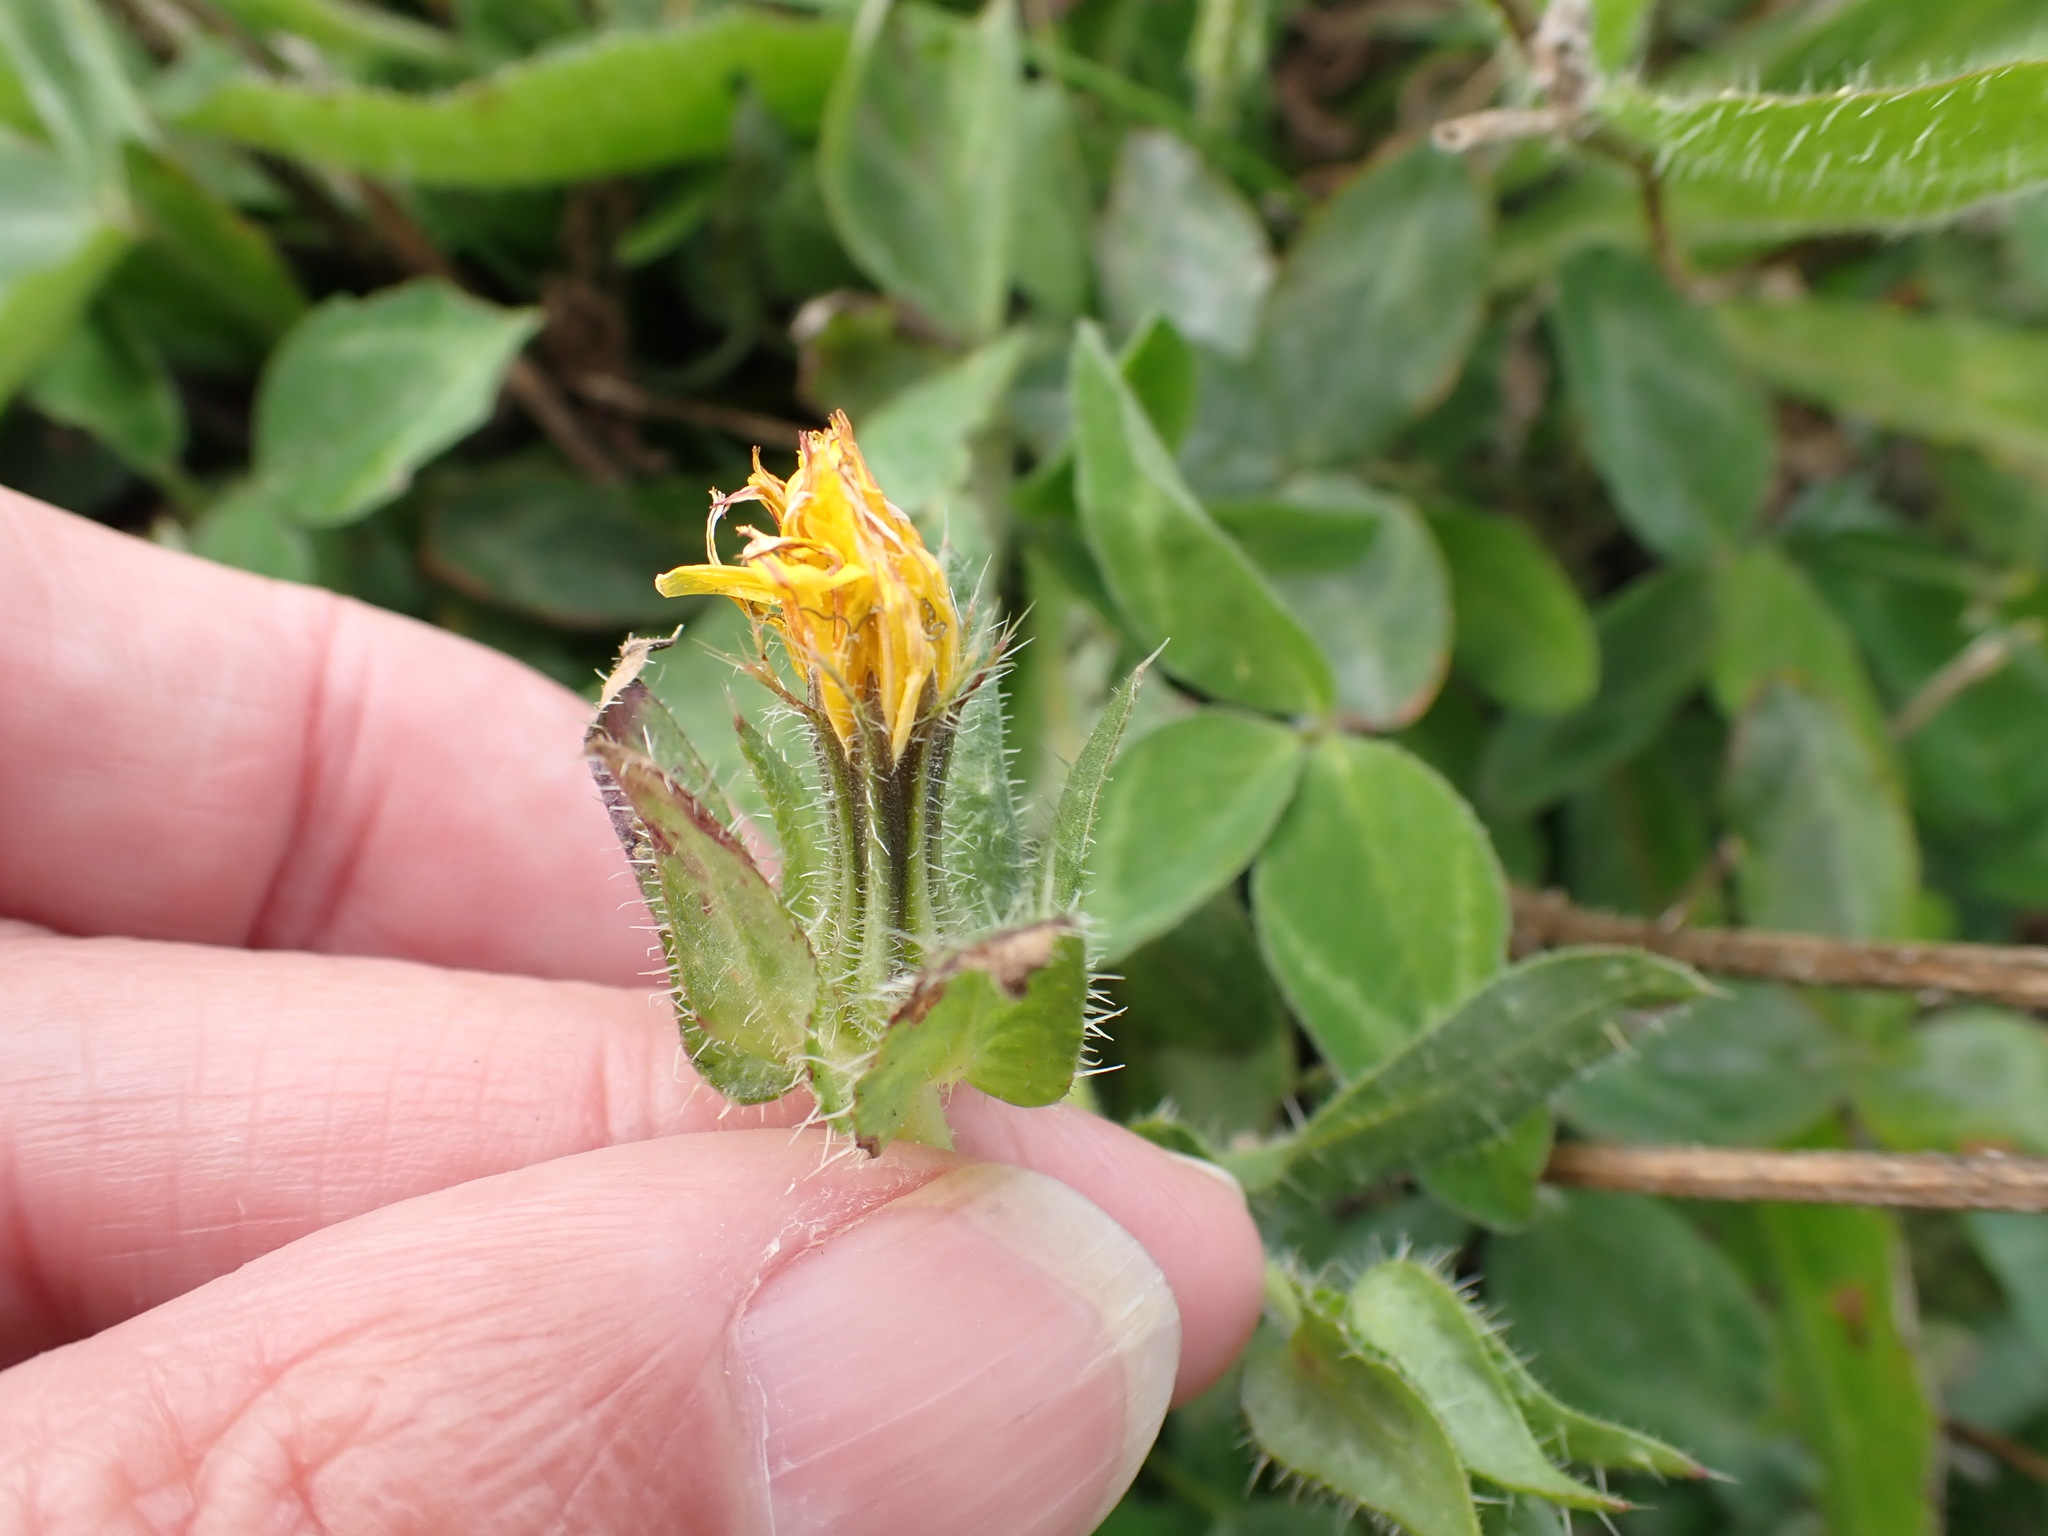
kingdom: Plantae
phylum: Tracheophyta
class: Magnoliopsida
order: Asterales
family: Asteraceae
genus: Helminthotheca
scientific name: Helminthotheca echioides
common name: Ox-tongue
